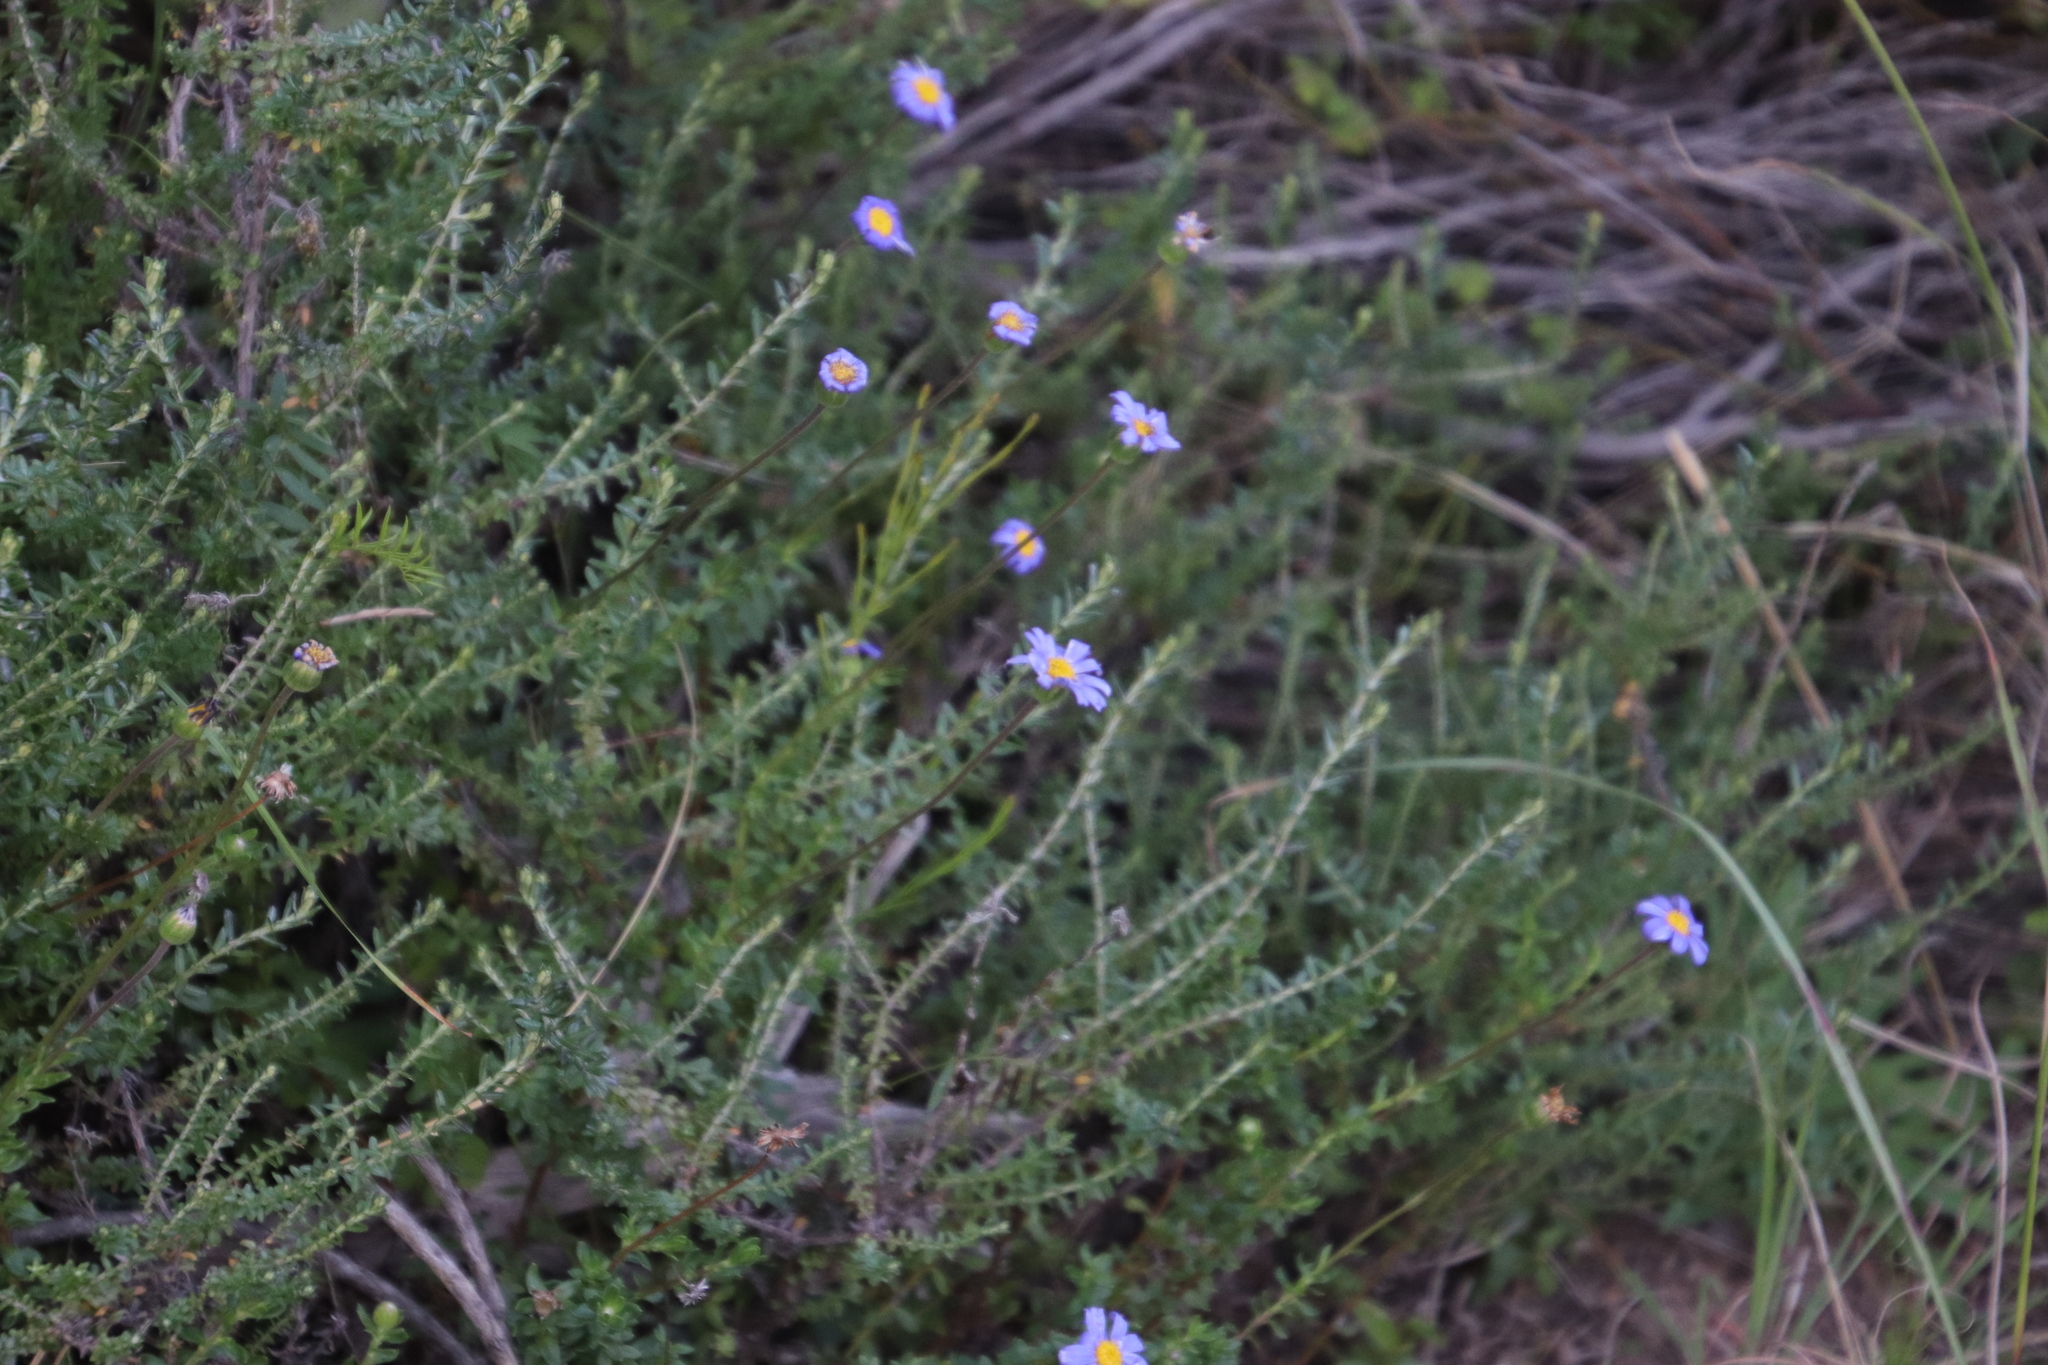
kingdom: Plantae
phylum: Tracheophyta
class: Magnoliopsida
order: Asterales
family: Asteraceae
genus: Felicia
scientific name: Felicia aethiopica
